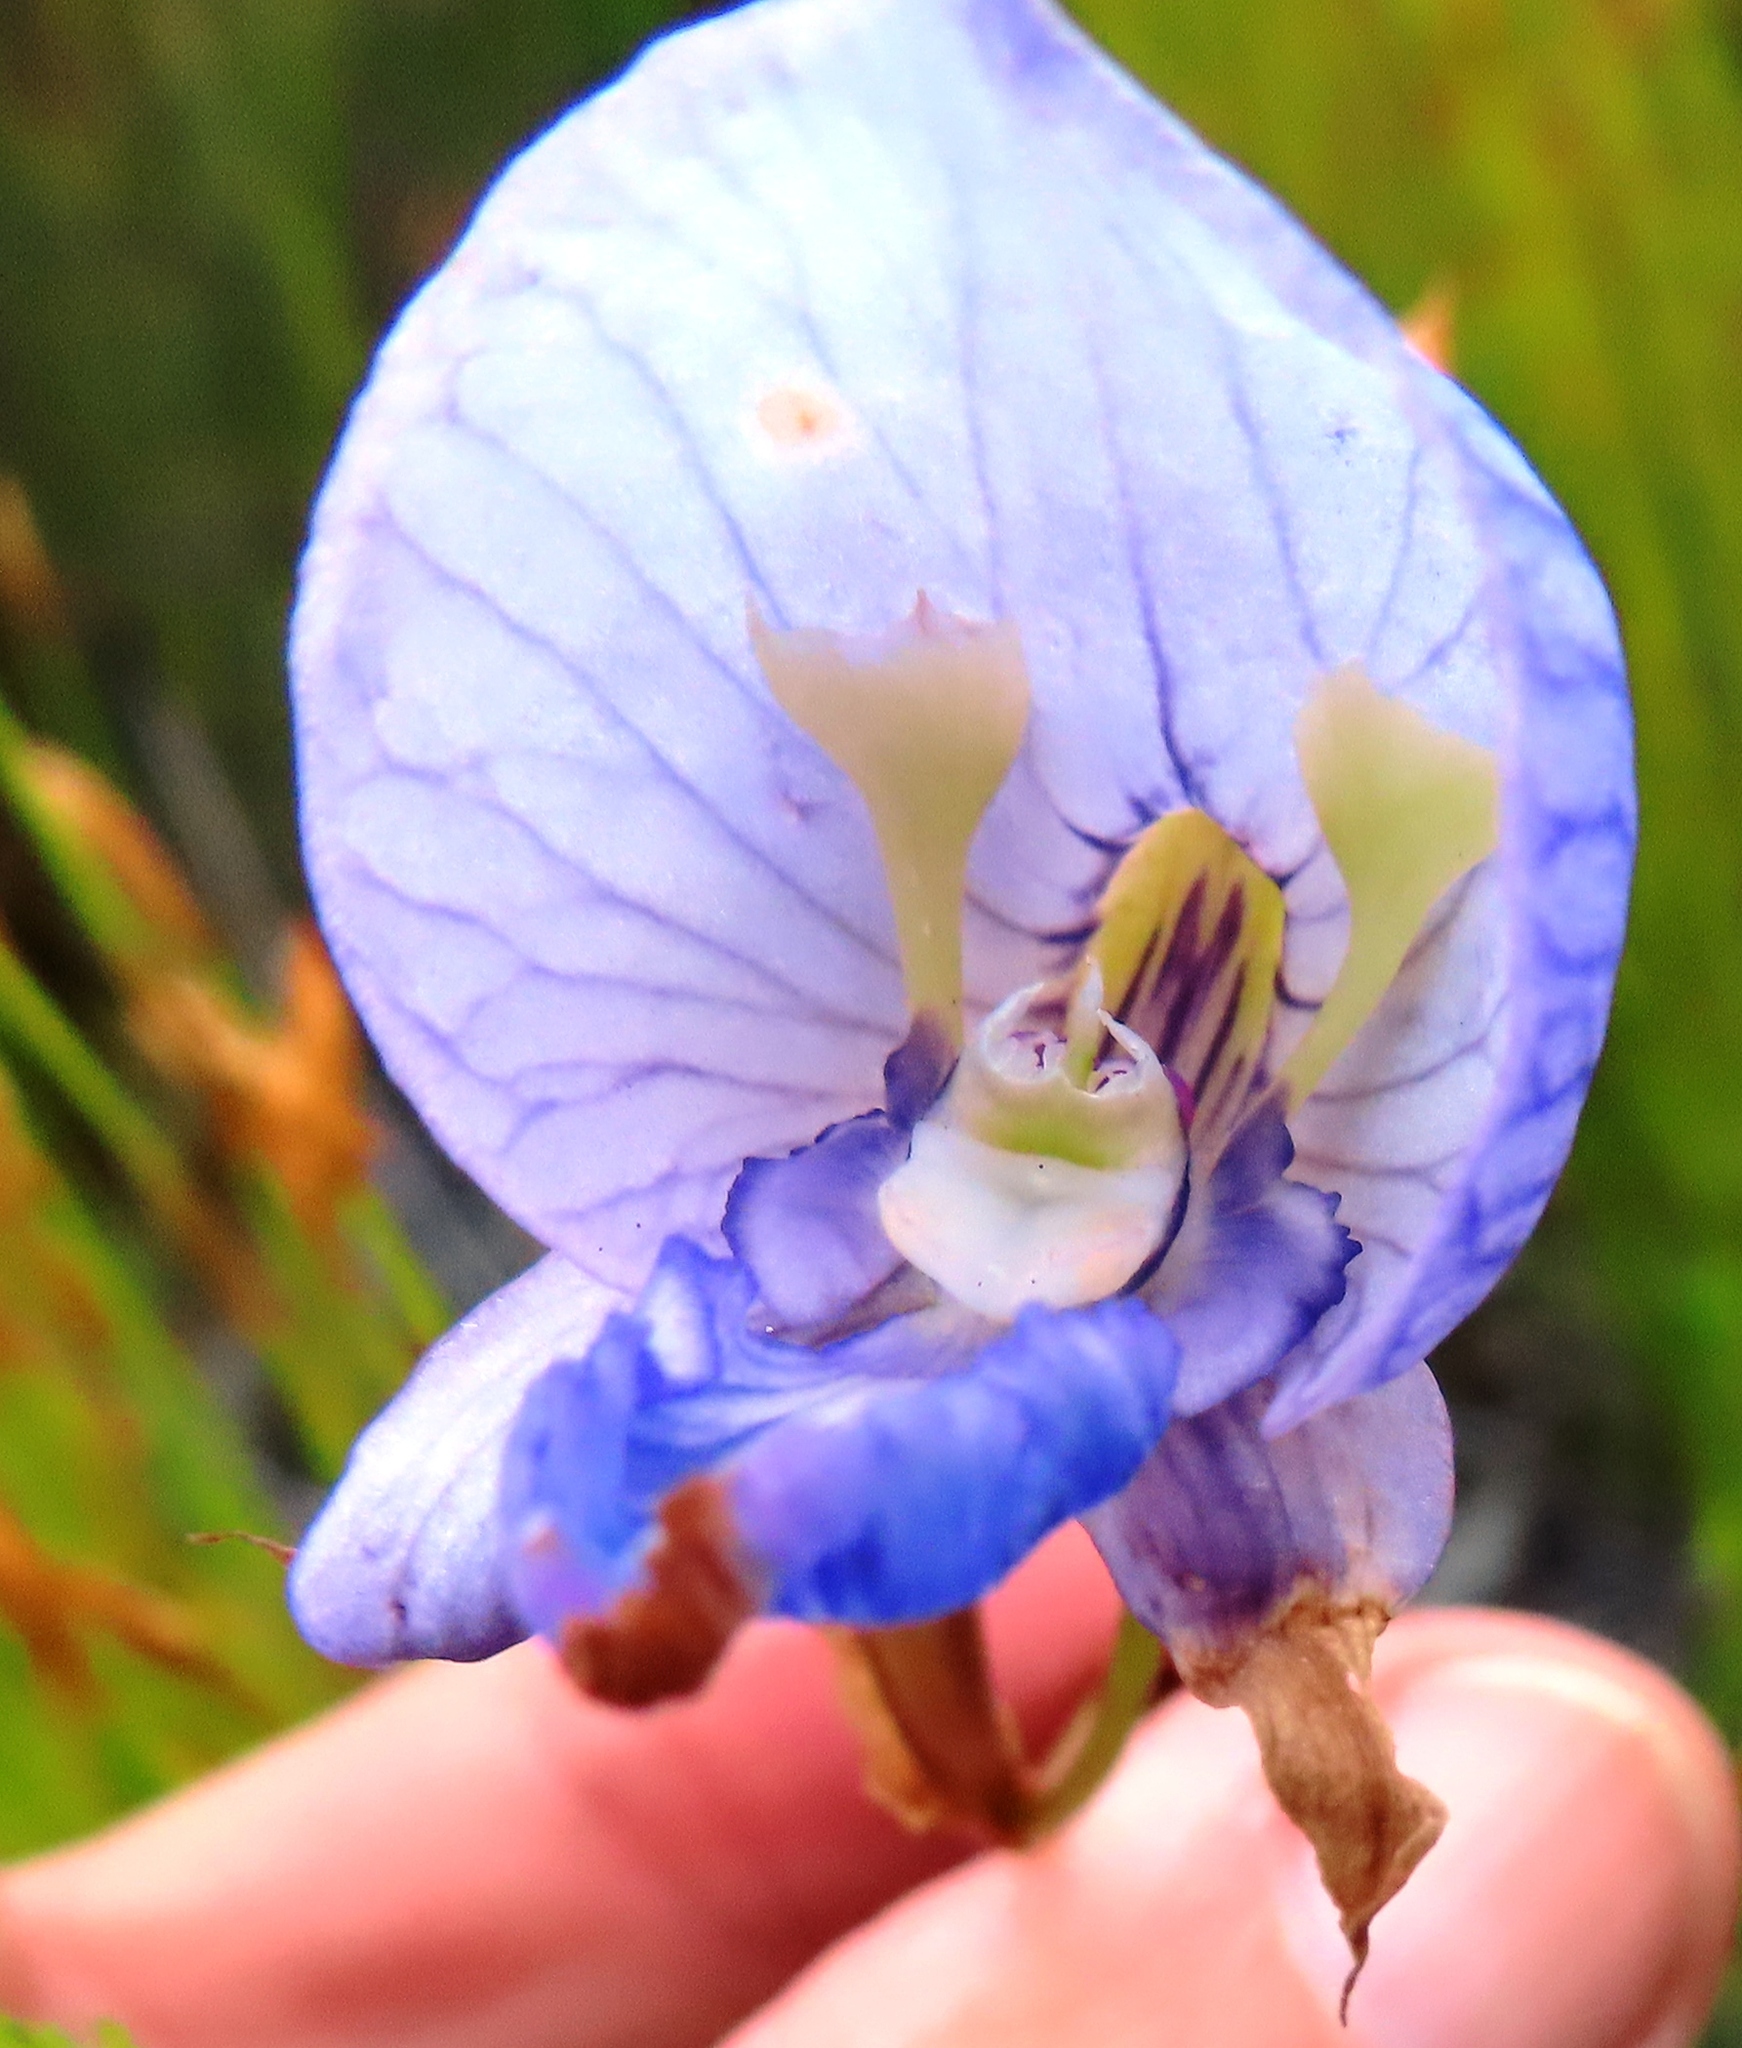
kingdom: Plantae
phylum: Tracheophyta
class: Liliopsida
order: Asparagales
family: Orchidaceae
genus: Disa
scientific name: Disa purpurascens
